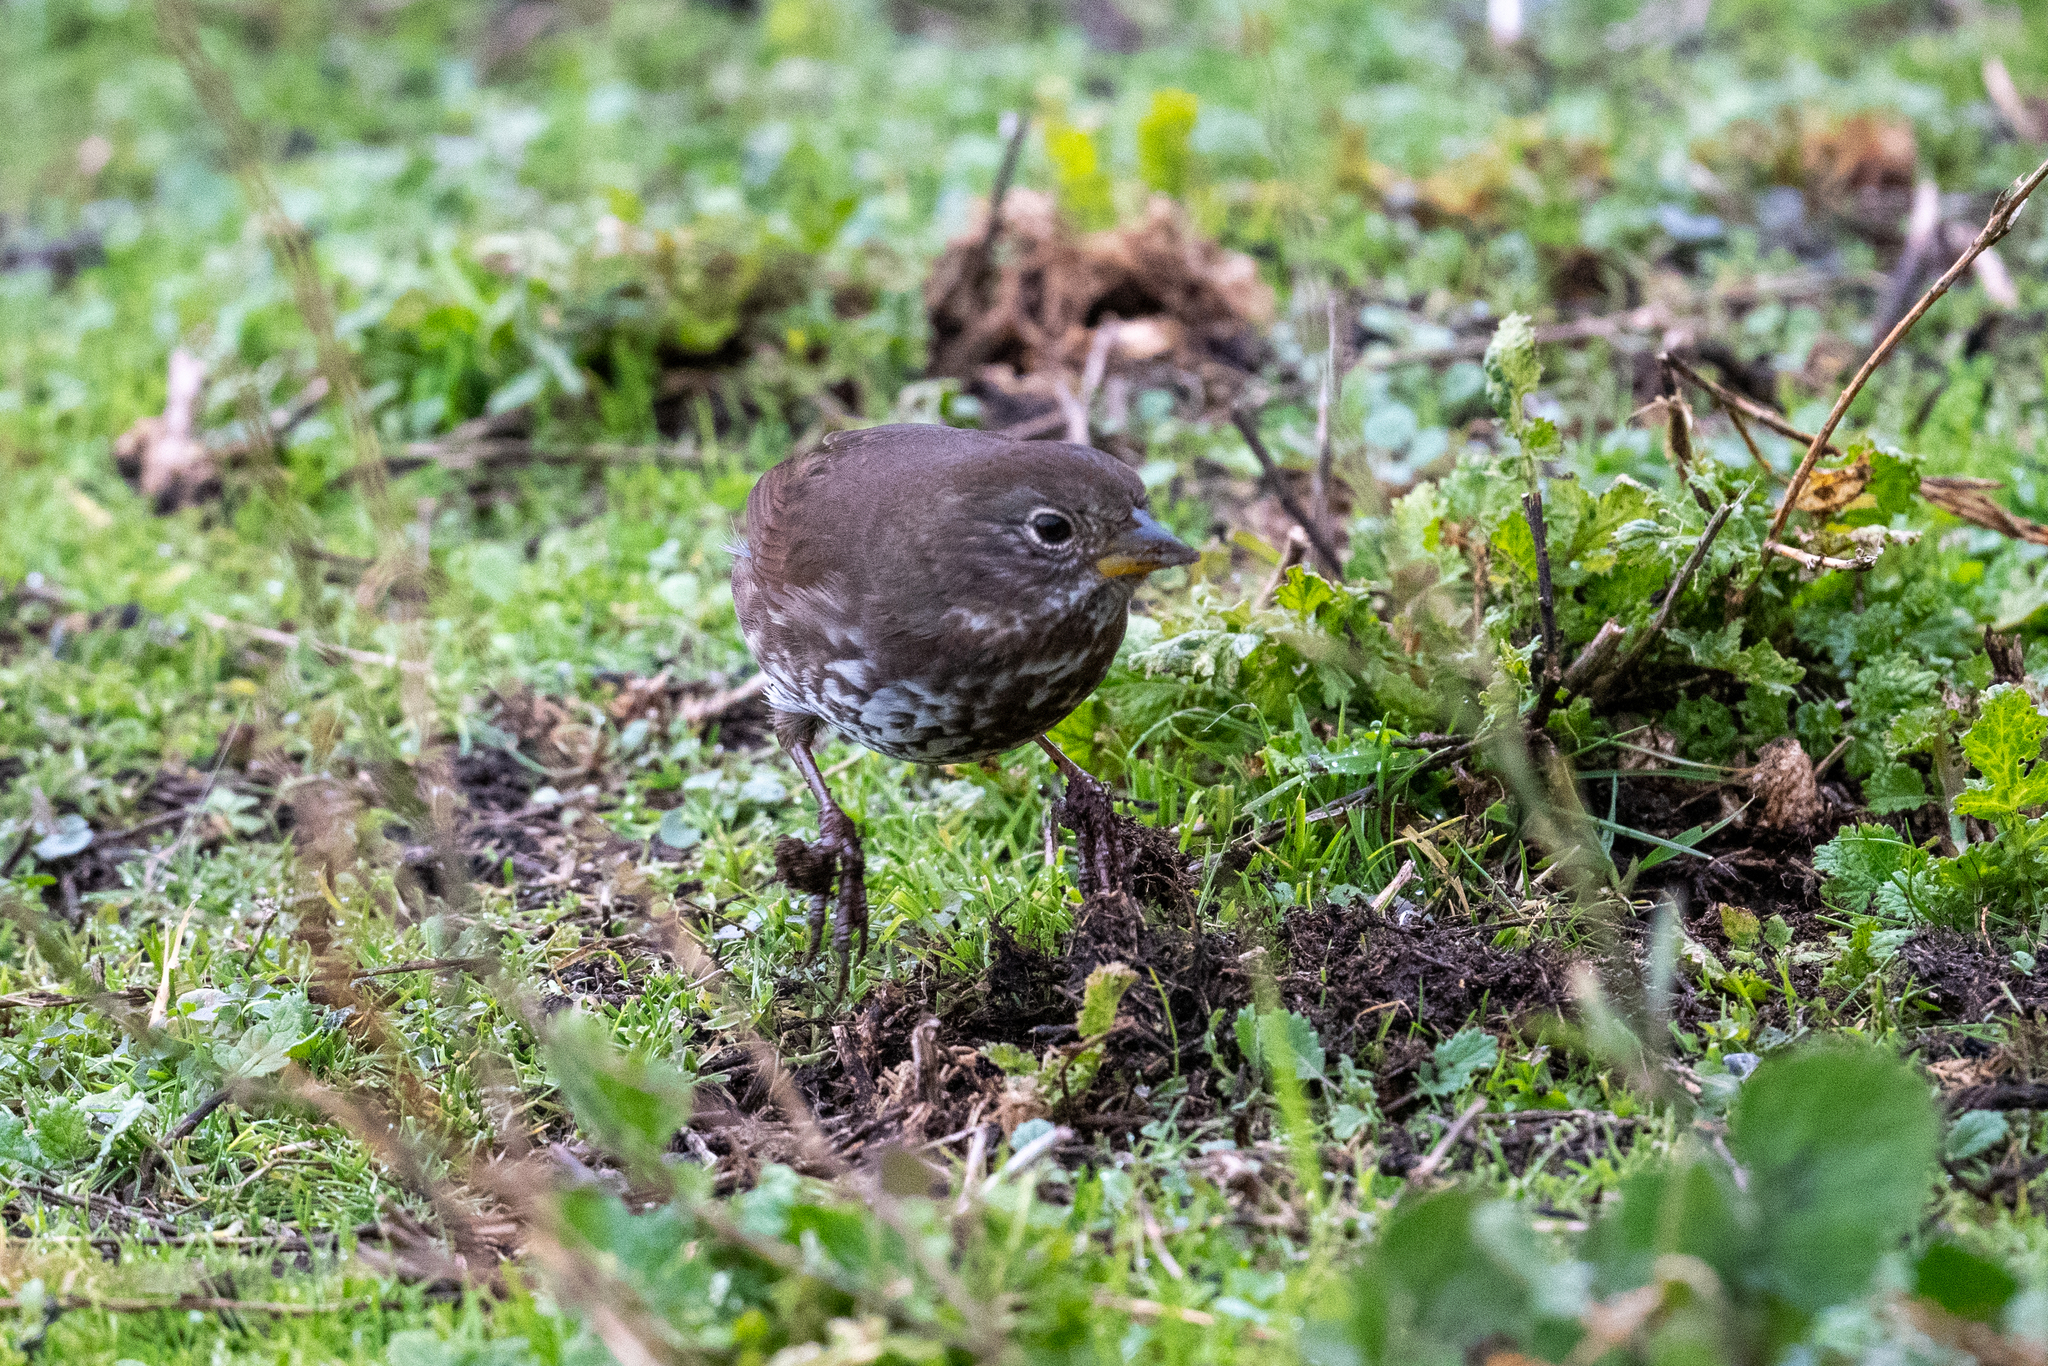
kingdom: Animalia
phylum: Chordata
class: Aves
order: Passeriformes
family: Passerellidae
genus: Passerella
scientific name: Passerella iliaca
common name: Fox sparrow
